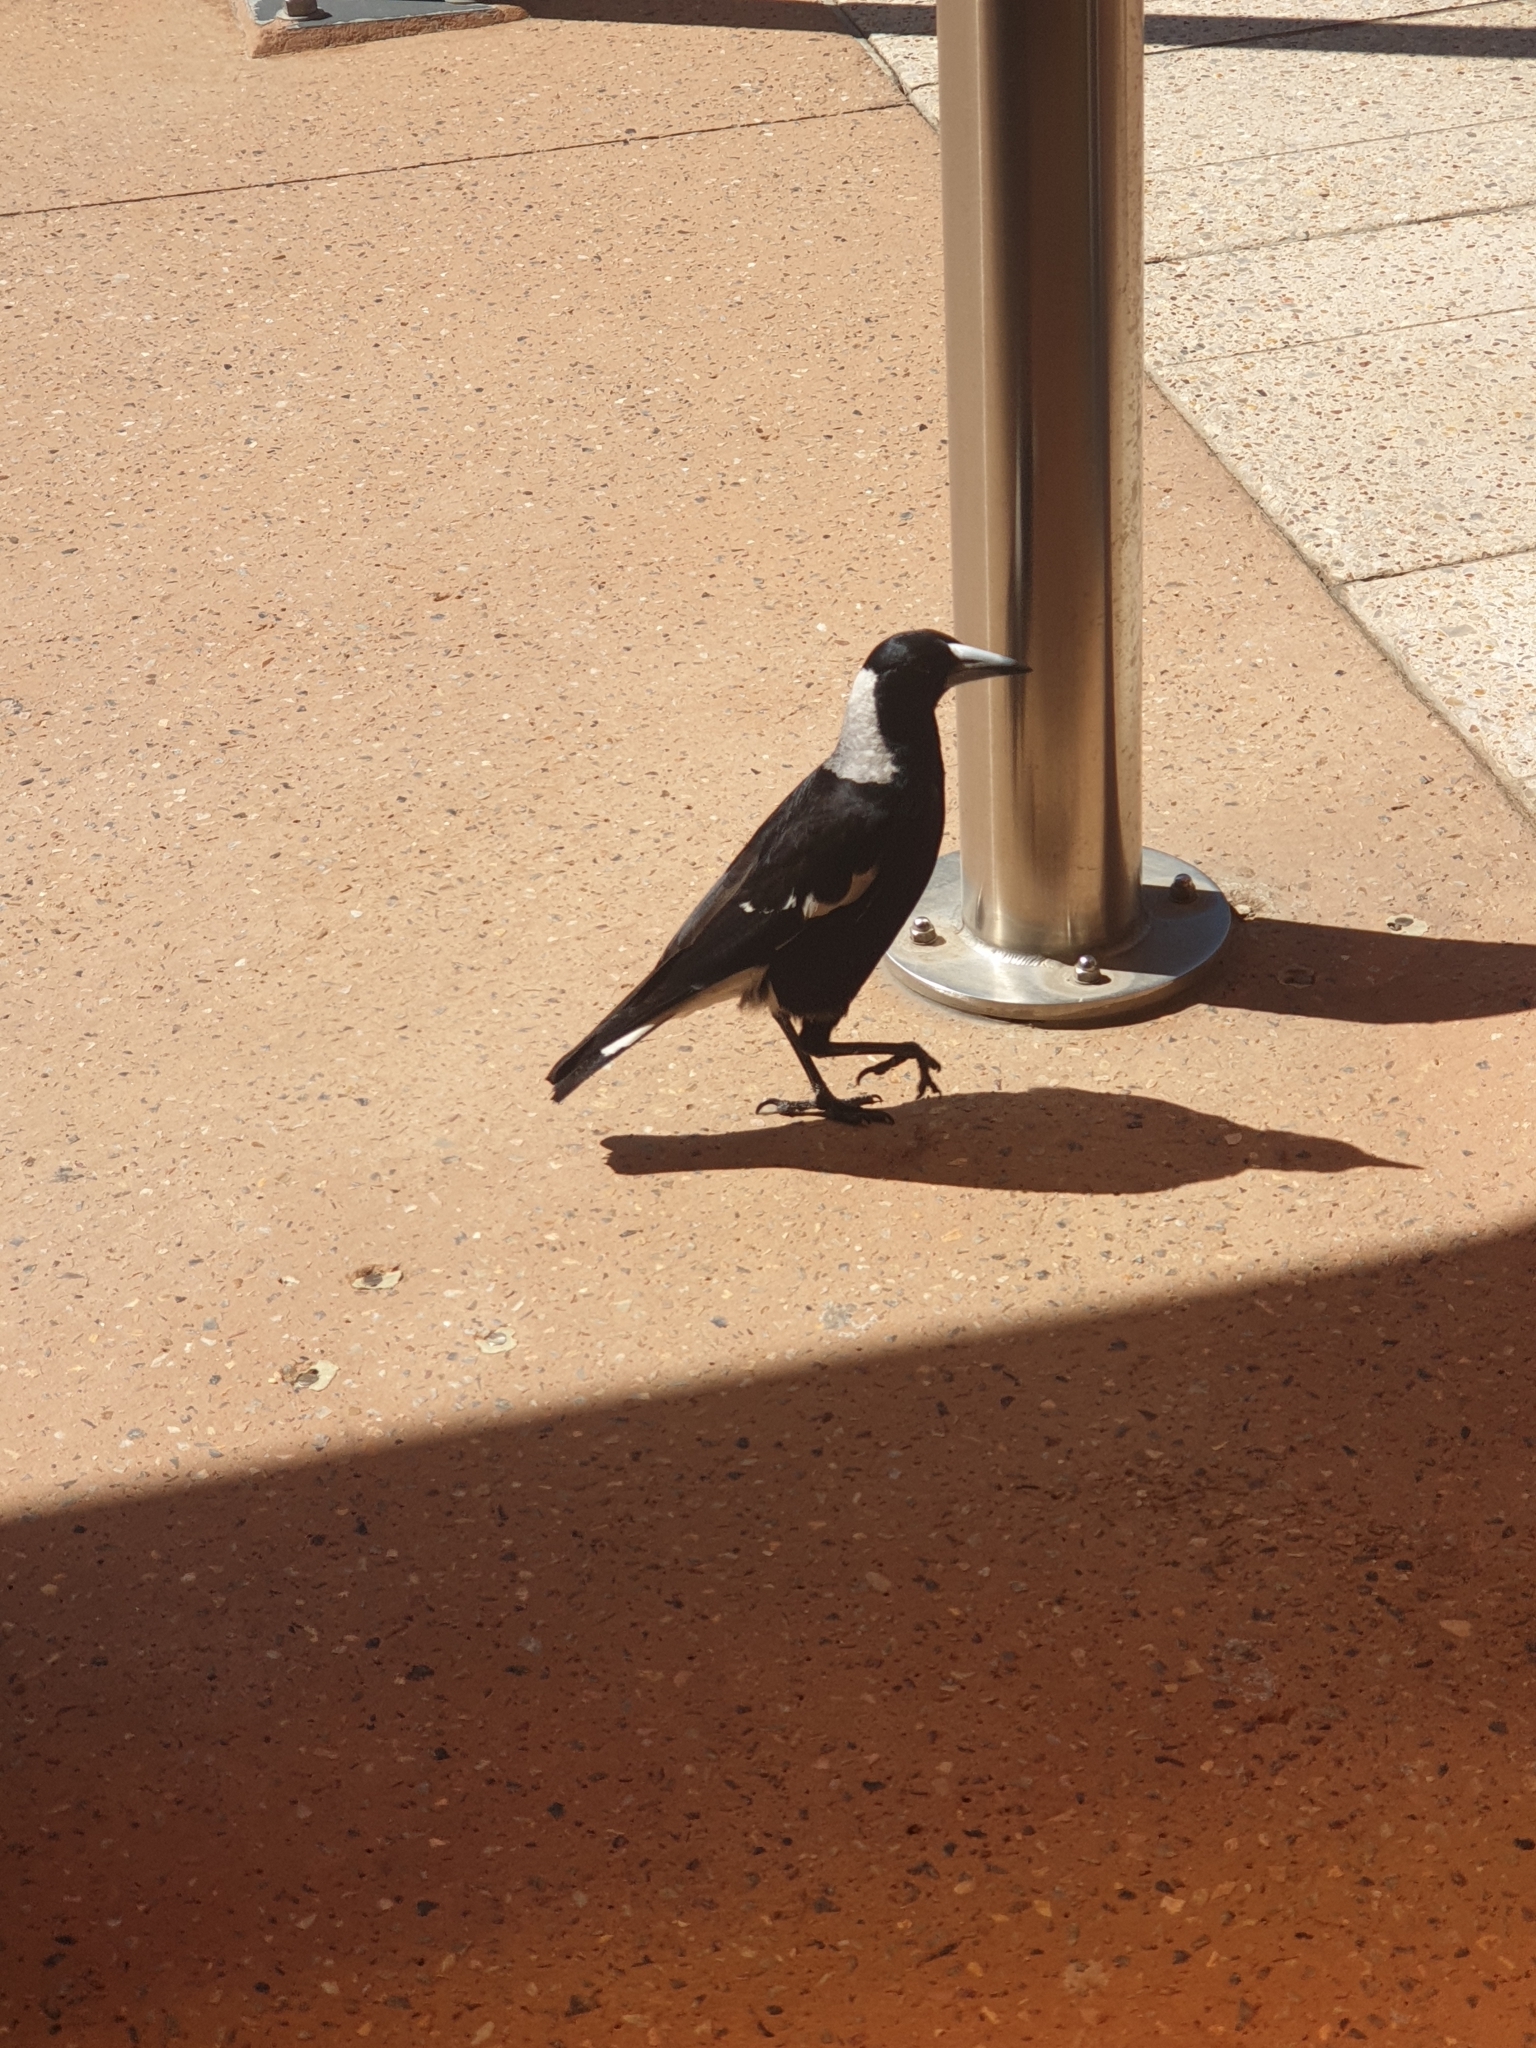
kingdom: Animalia
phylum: Chordata
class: Aves
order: Passeriformes
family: Cracticidae
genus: Gymnorhina
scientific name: Gymnorhina tibicen
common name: Australian magpie
